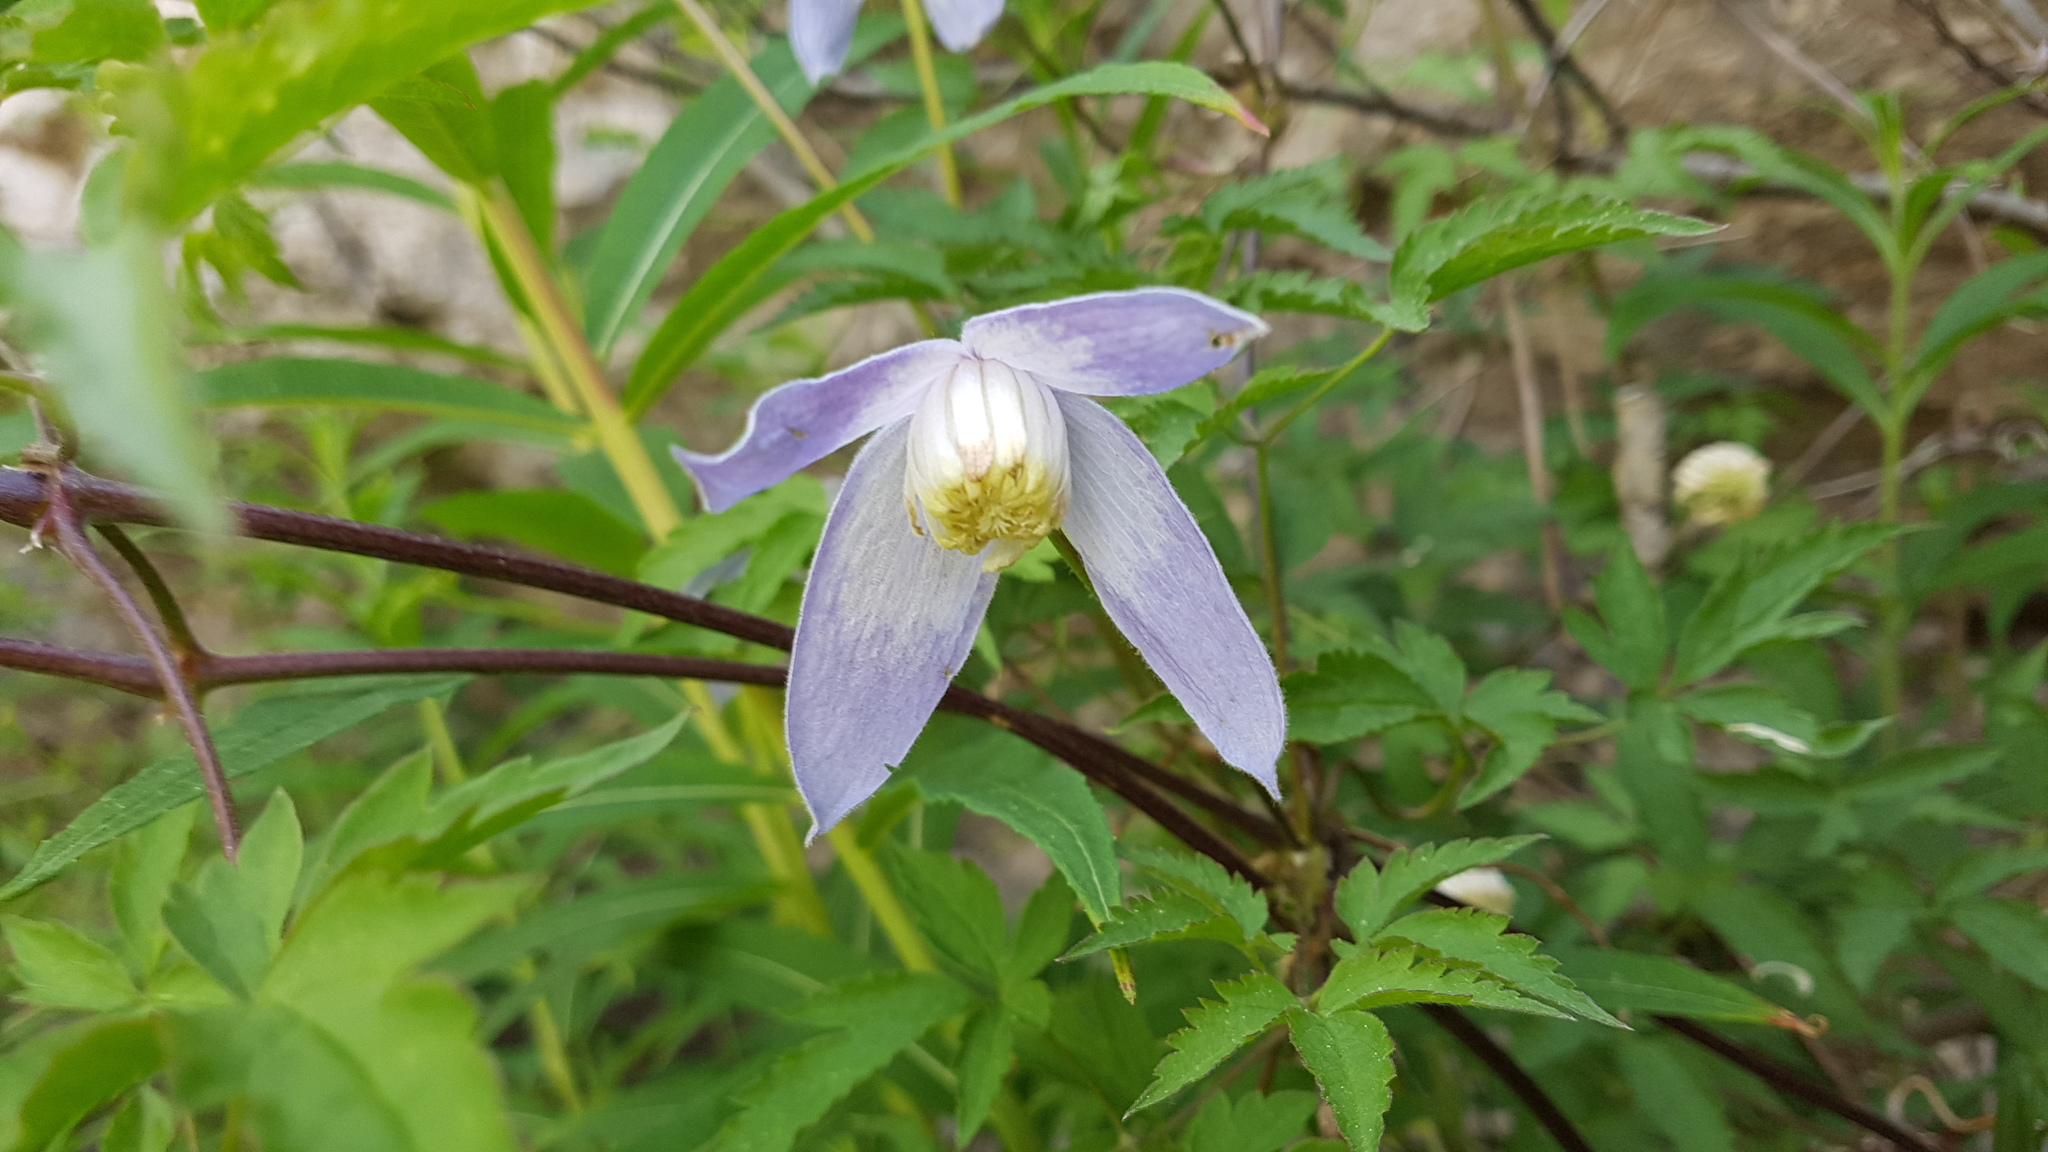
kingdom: Plantae
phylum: Tracheophyta
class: Magnoliopsida
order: Ranunculales
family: Ranunculaceae
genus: Clematis
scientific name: Clematis alpina
